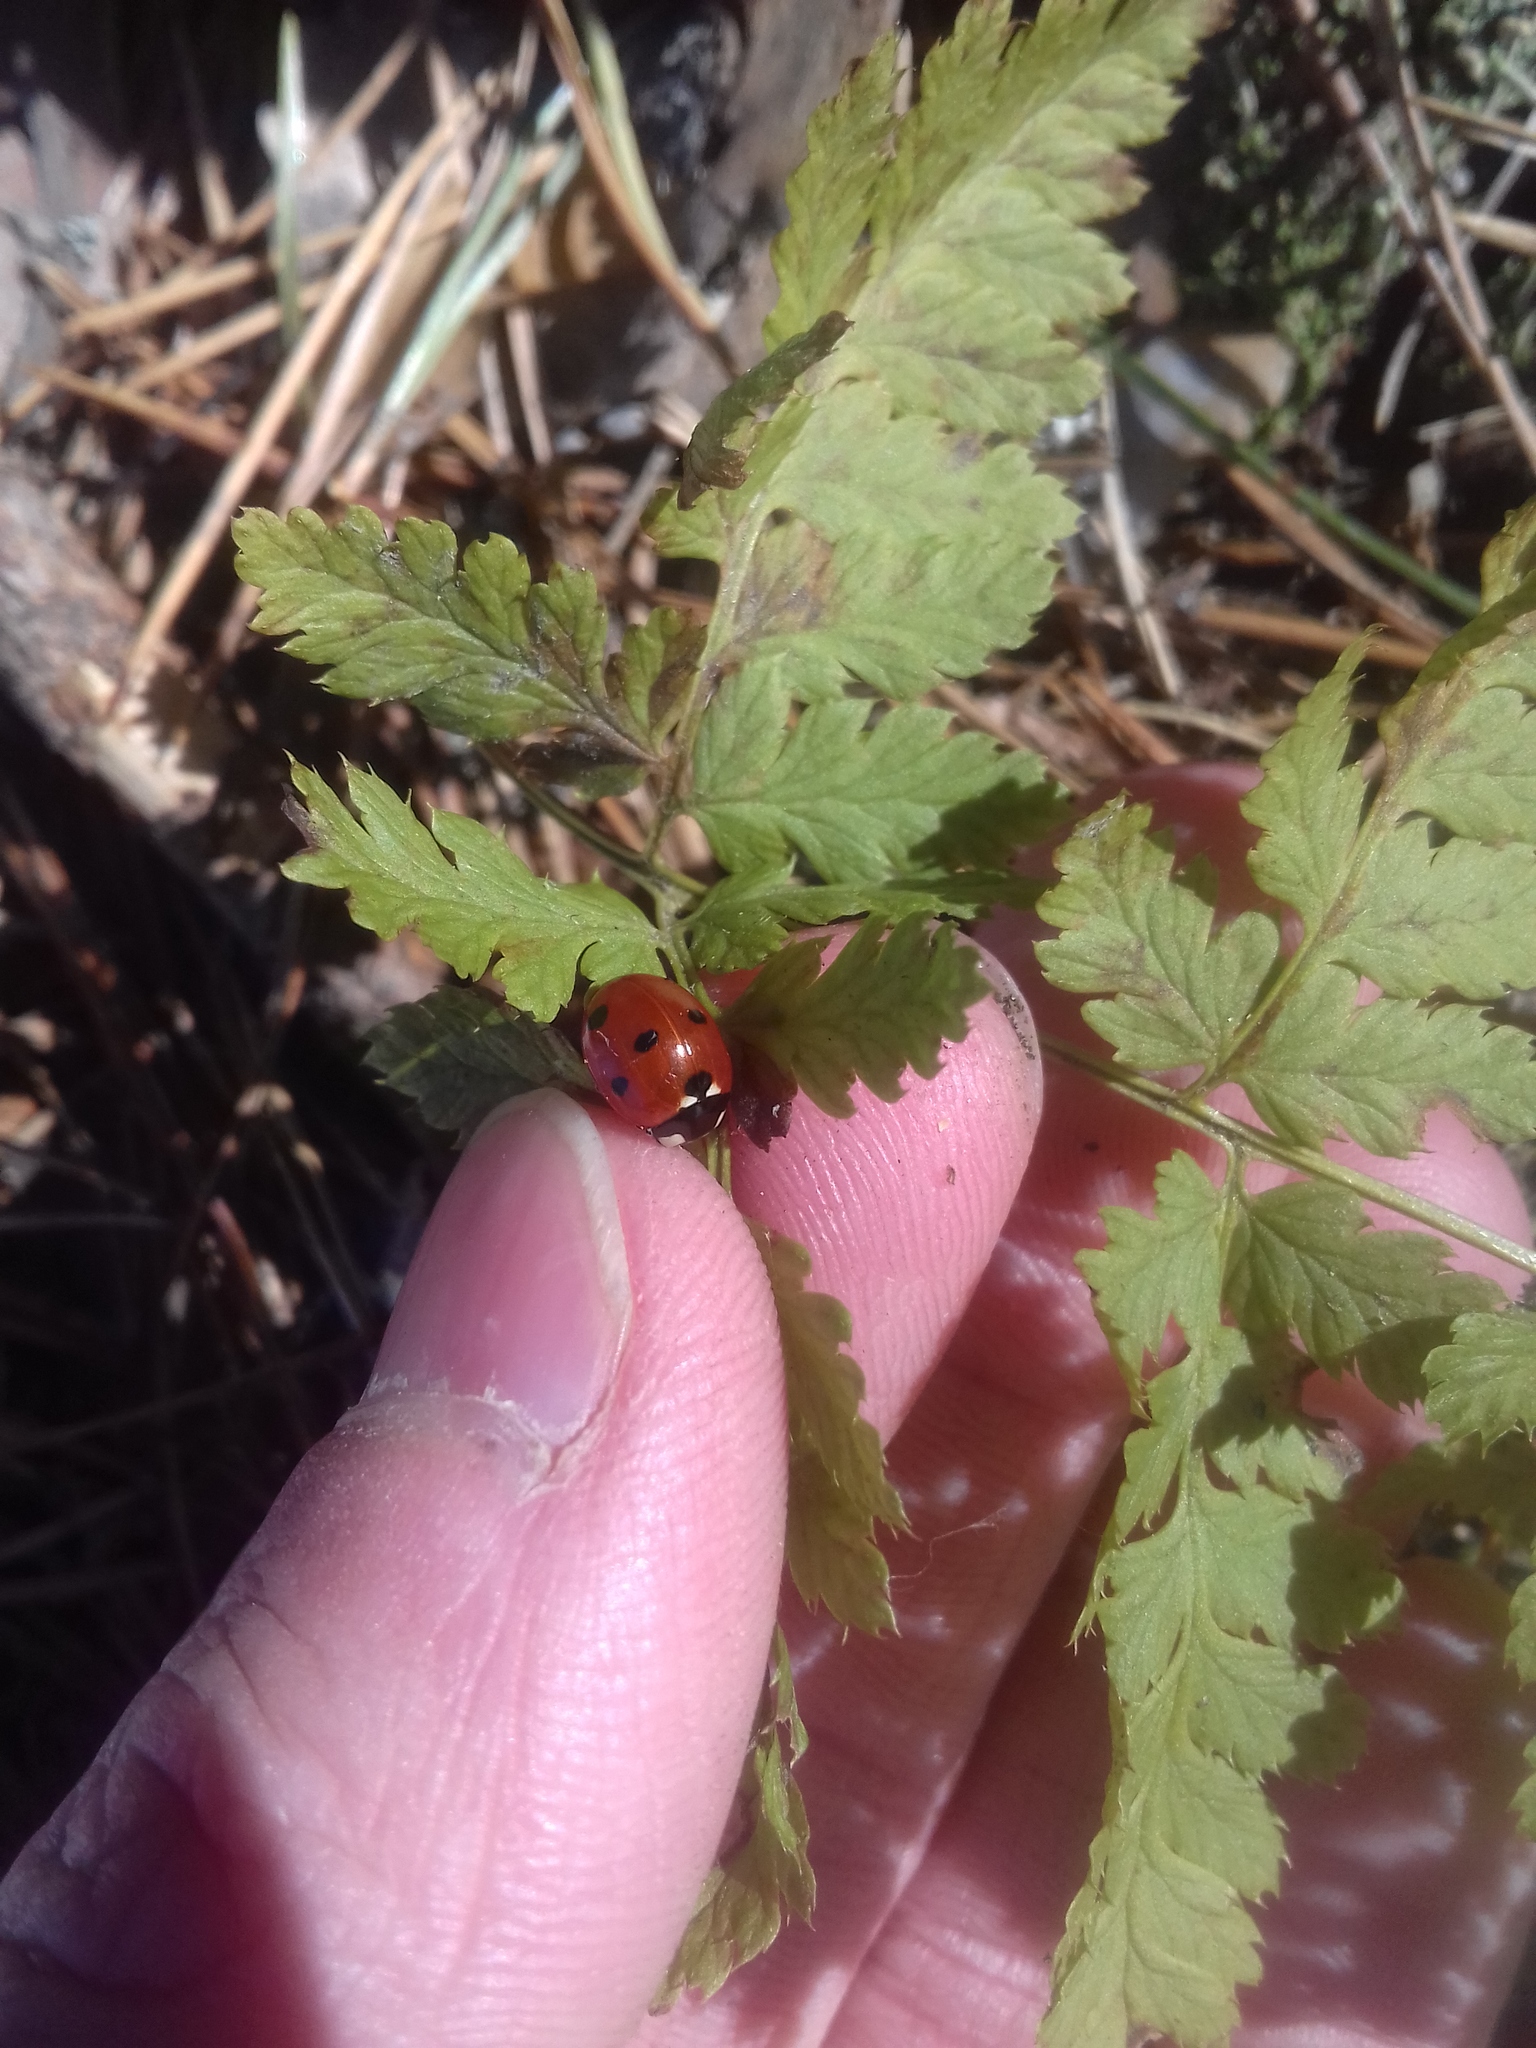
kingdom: Animalia
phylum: Arthropoda
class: Insecta
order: Coleoptera
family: Coccinellidae
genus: Coccinella
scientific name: Coccinella septempunctata
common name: Sevenspotted lady beetle
